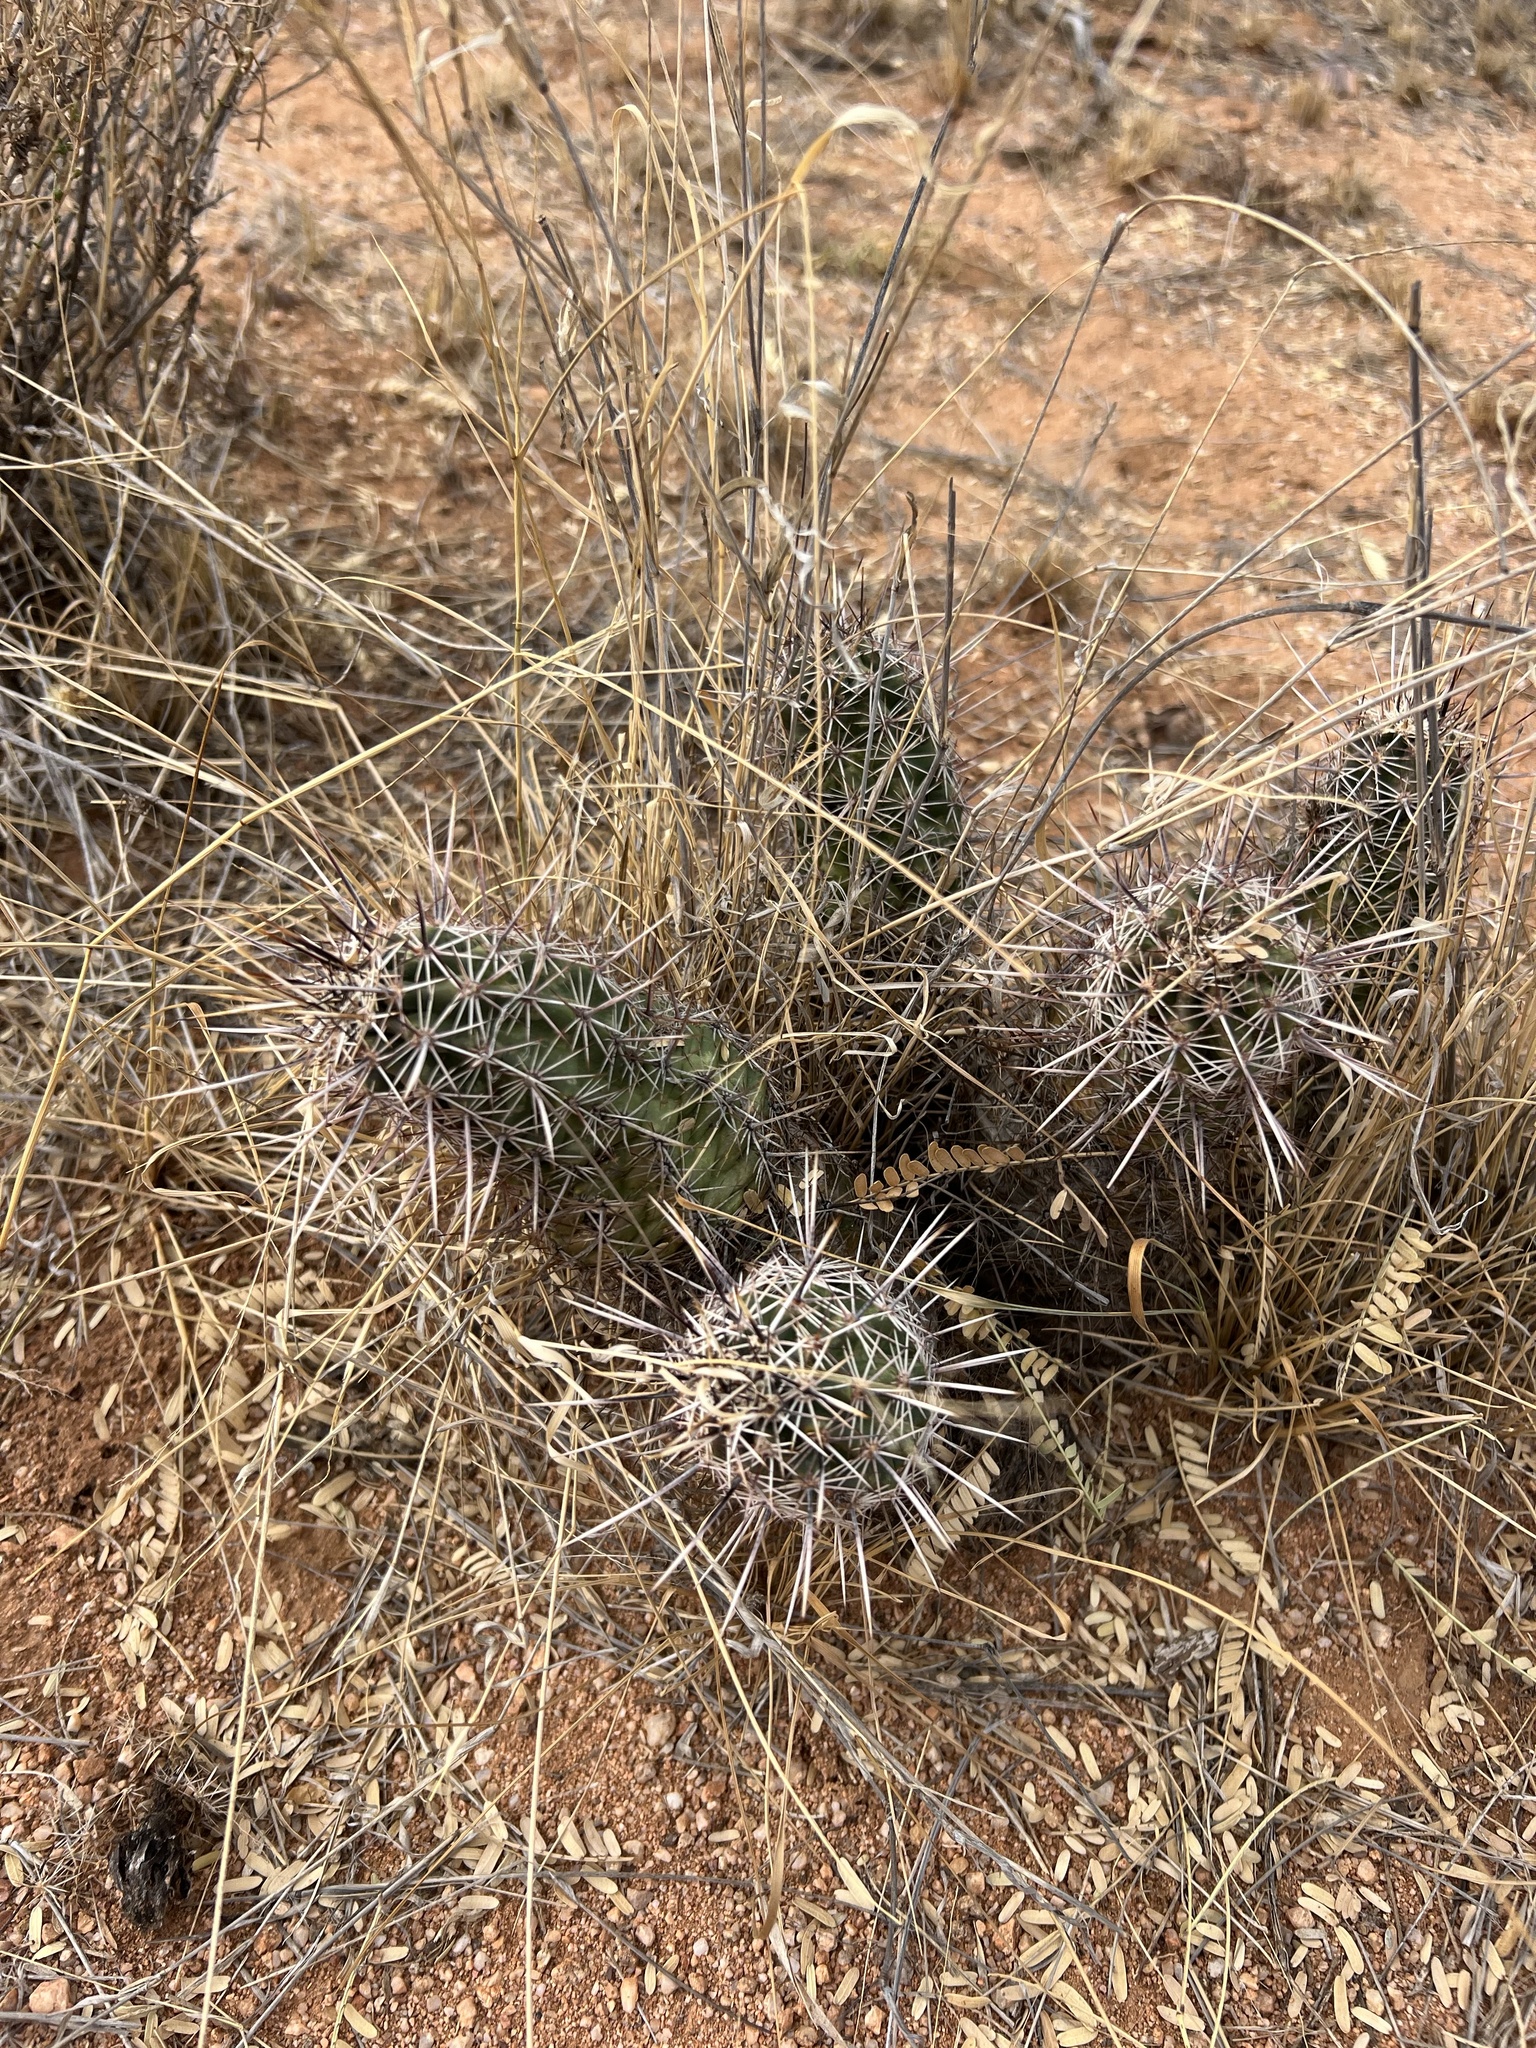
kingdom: Plantae
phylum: Tracheophyta
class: Magnoliopsida
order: Caryophyllales
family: Cactaceae
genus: Echinocereus
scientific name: Echinocereus fasciculatus
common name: Bundle hedgehog
